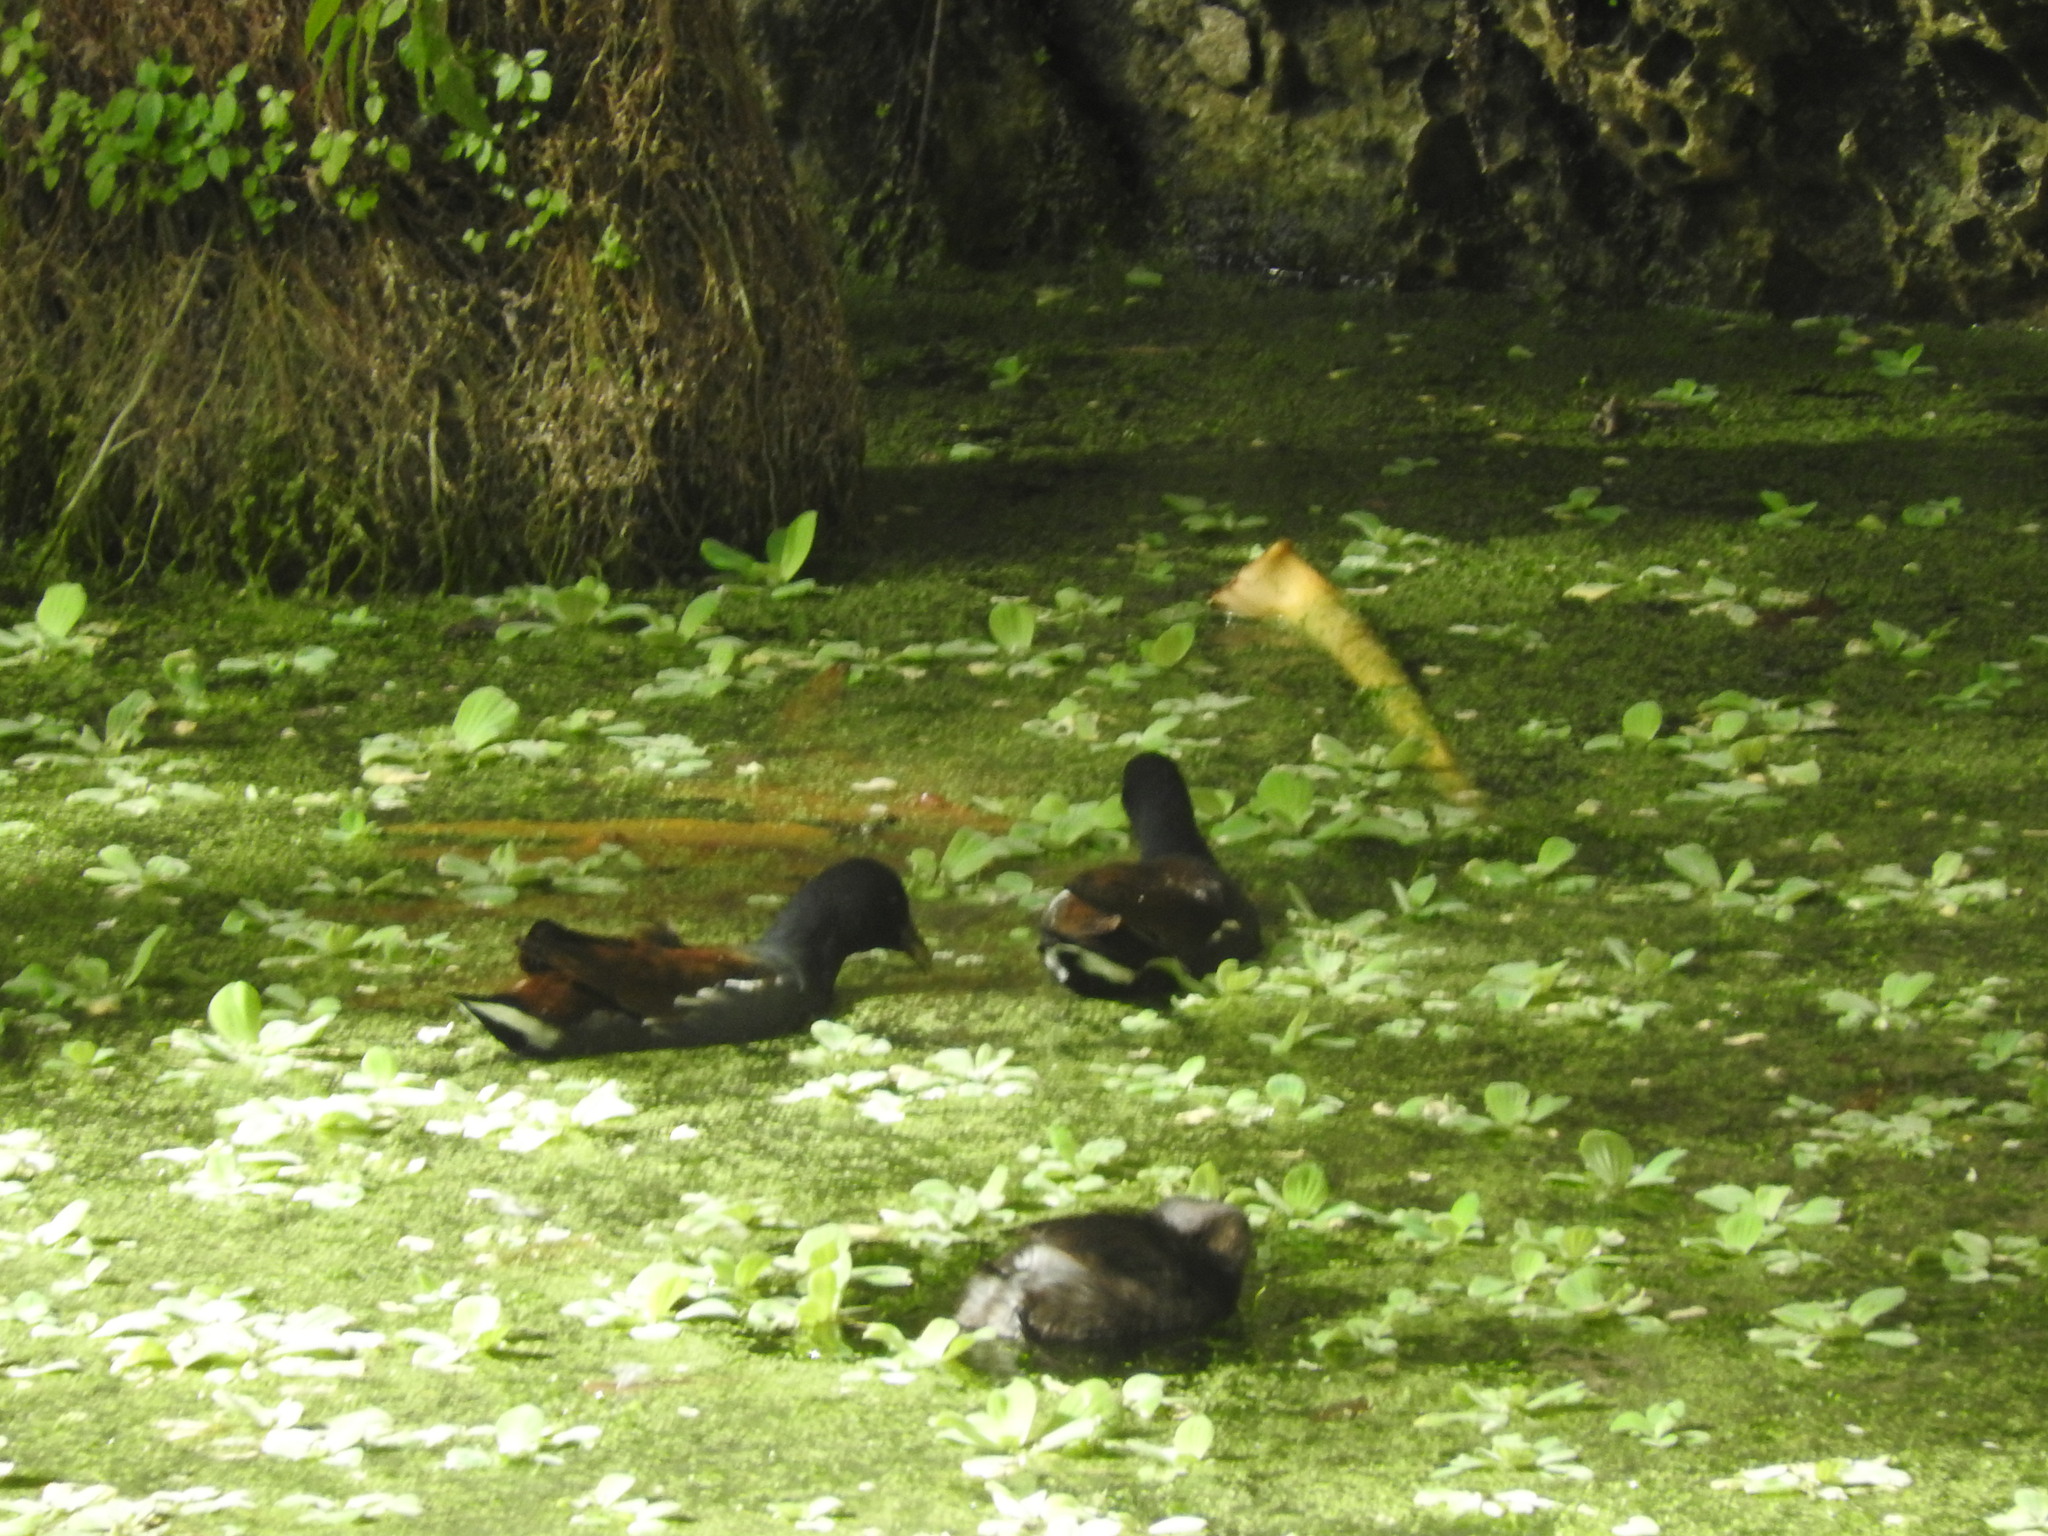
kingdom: Animalia
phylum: Chordata
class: Aves
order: Gruiformes
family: Rallidae
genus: Gallinula
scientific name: Gallinula chloropus
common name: Common moorhen
